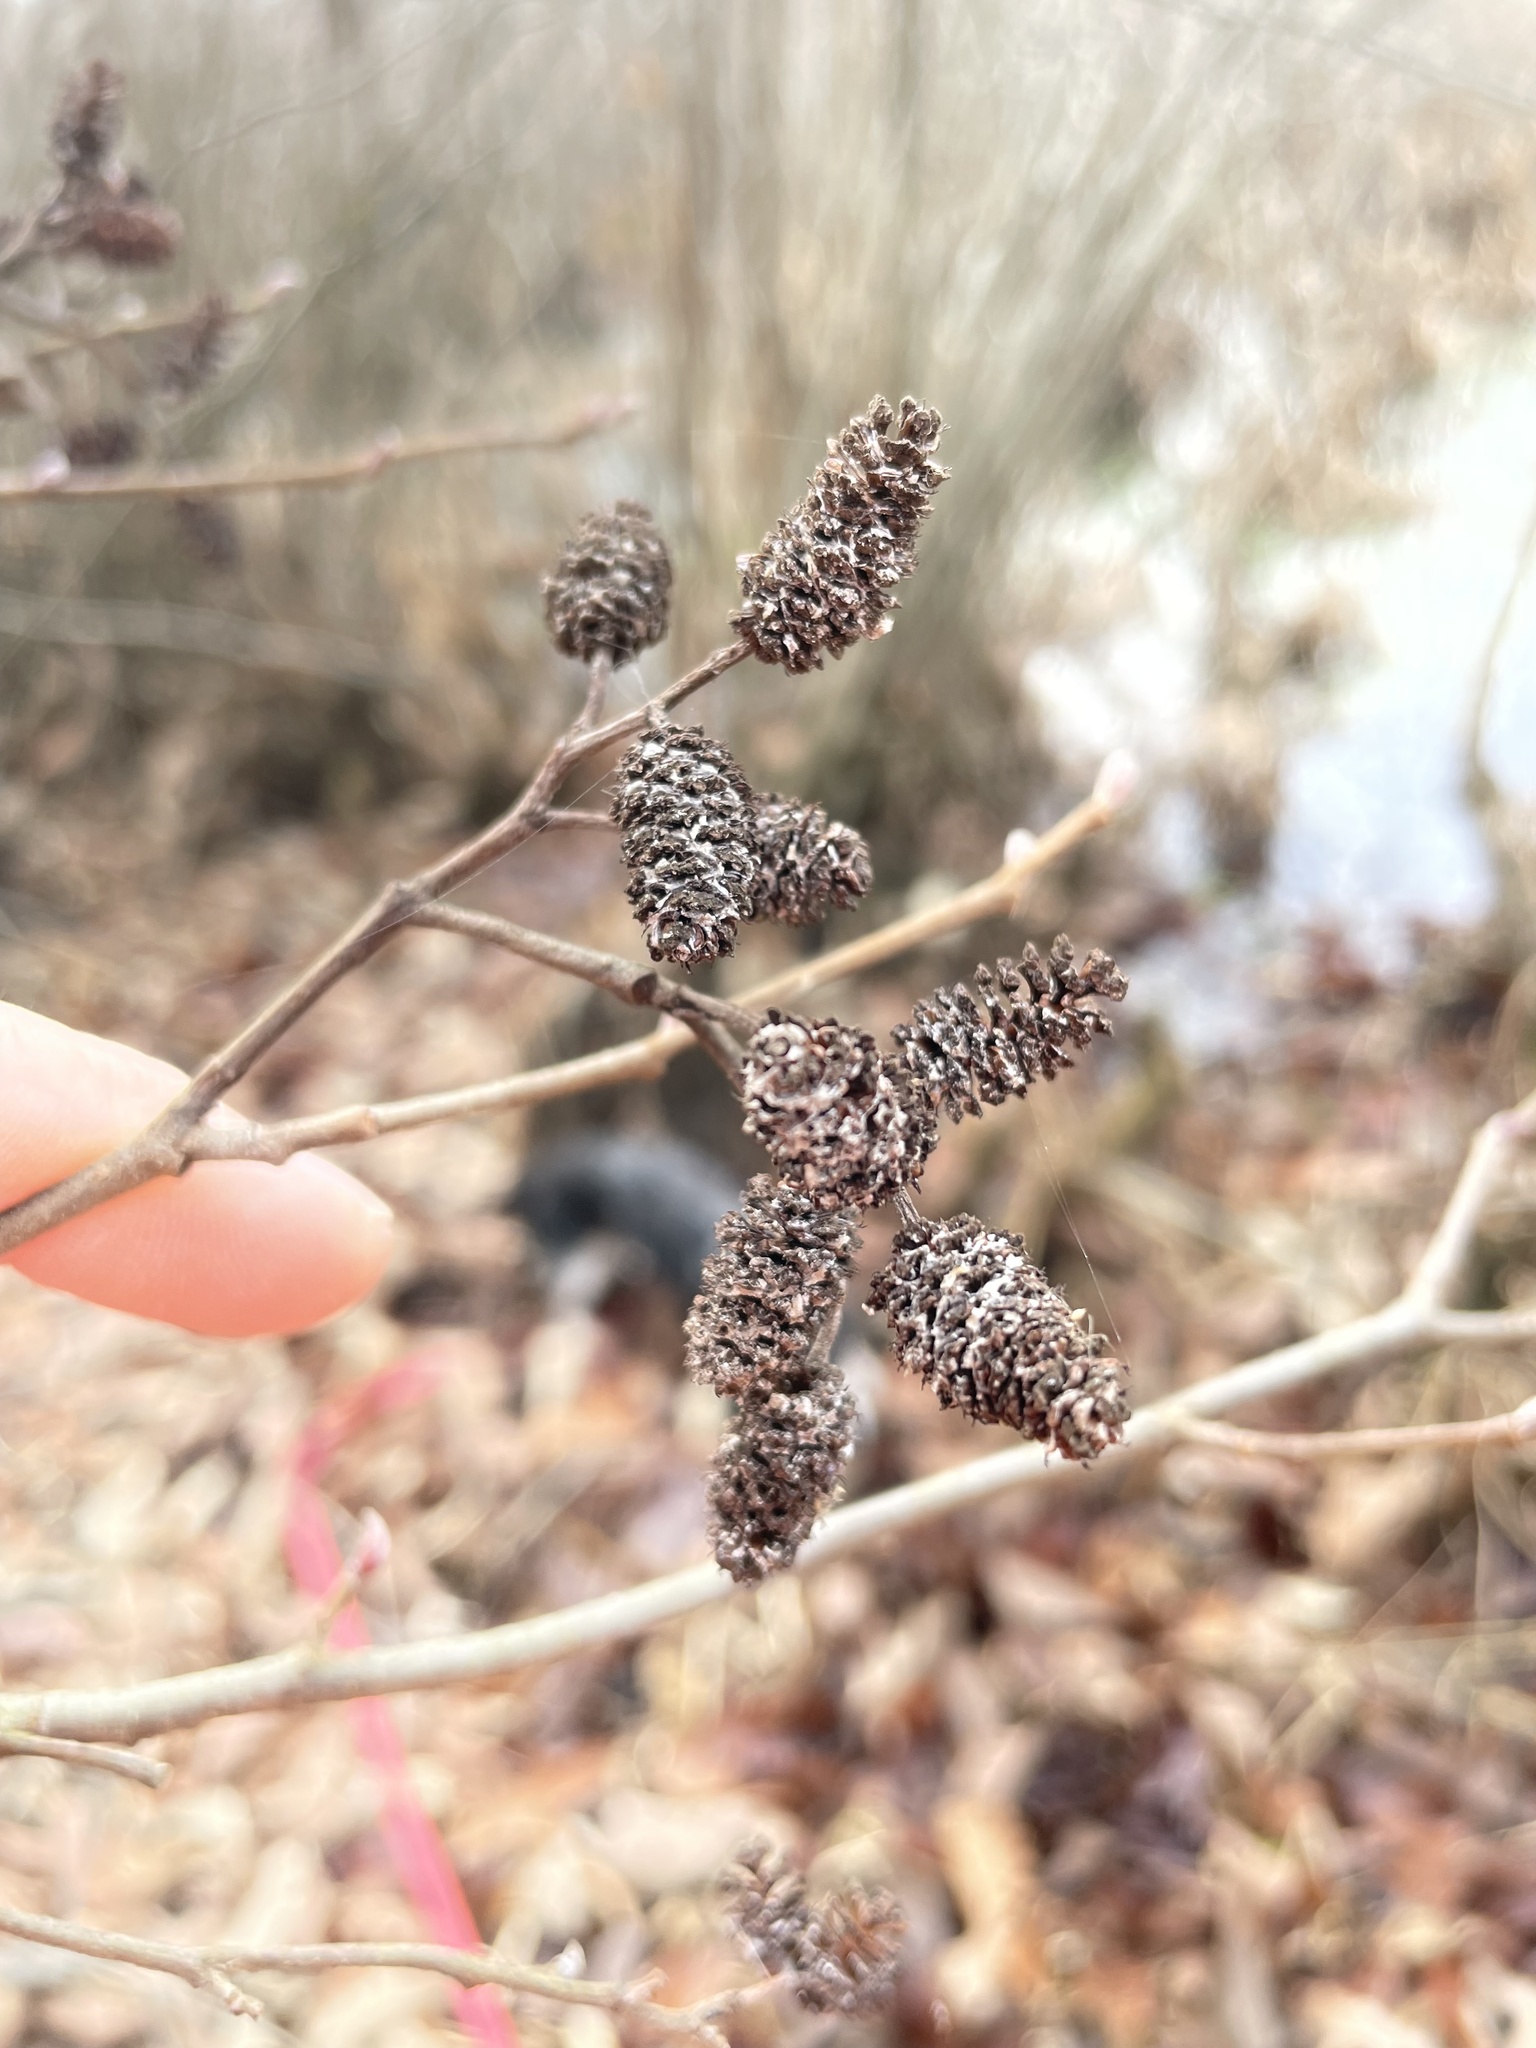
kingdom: Plantae
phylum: Tracheophyta
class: Magnoliopsida
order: Fagales
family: Betulaceae
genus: Alnus
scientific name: Alnus serrulata
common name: Hazel alder
